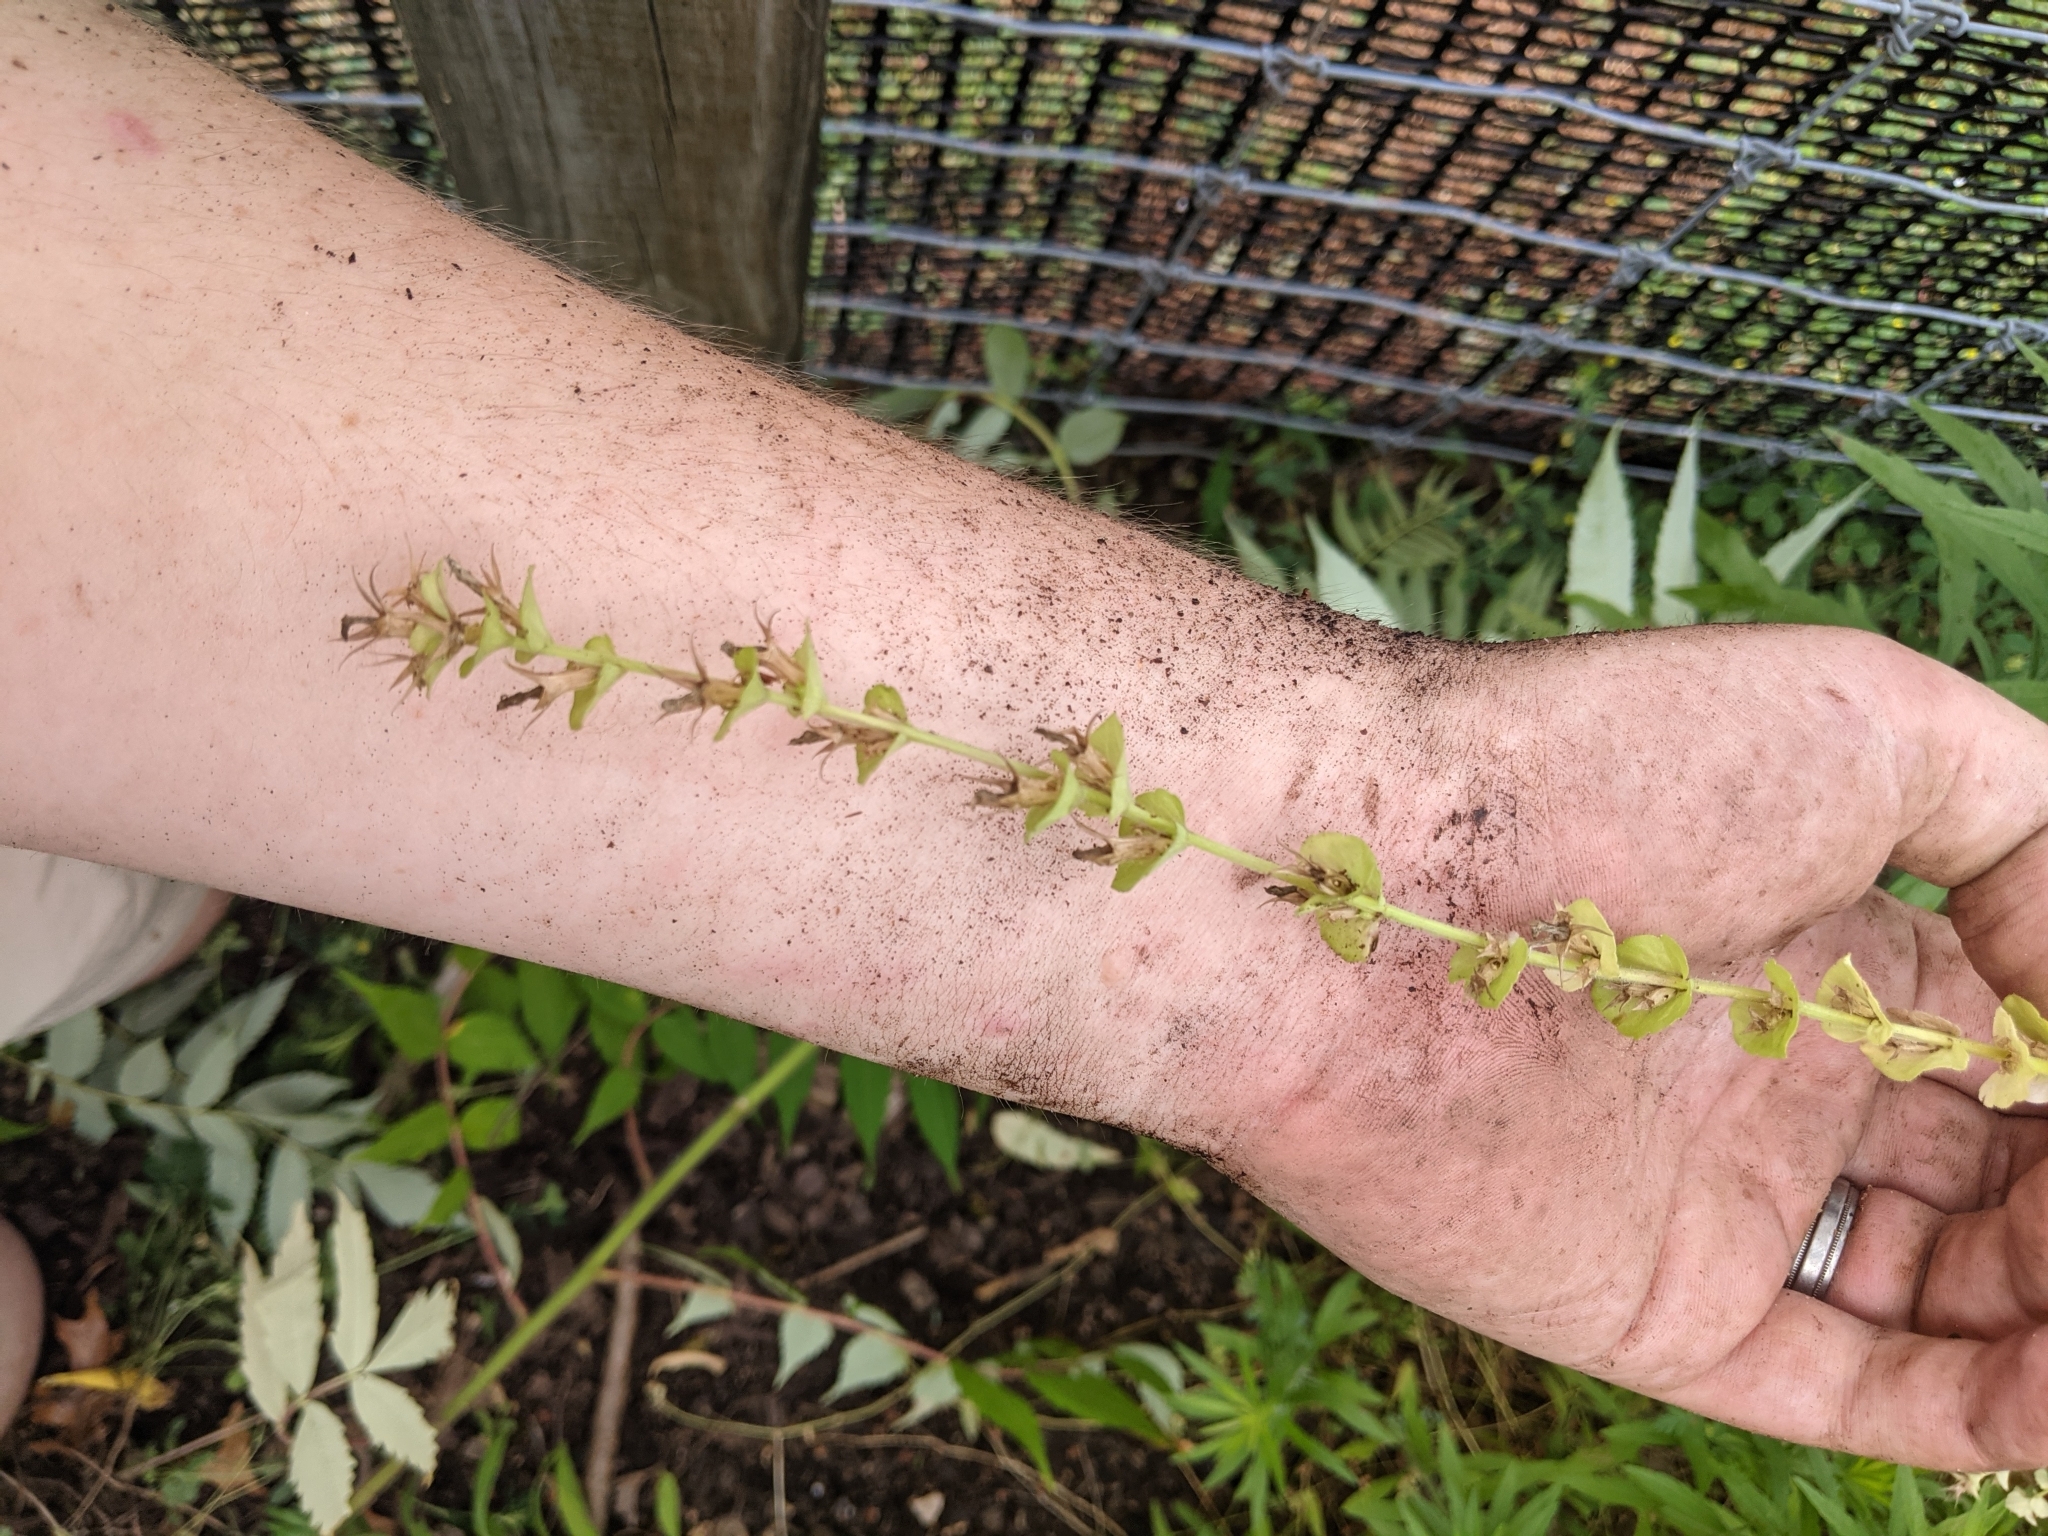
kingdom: Plantae
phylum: Tracheophyta
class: Magnoliopsida
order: Asterales
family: Campanulaceae
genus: Triodanis
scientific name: Triodanis perfoliata
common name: Clasping venus' looking-glass
